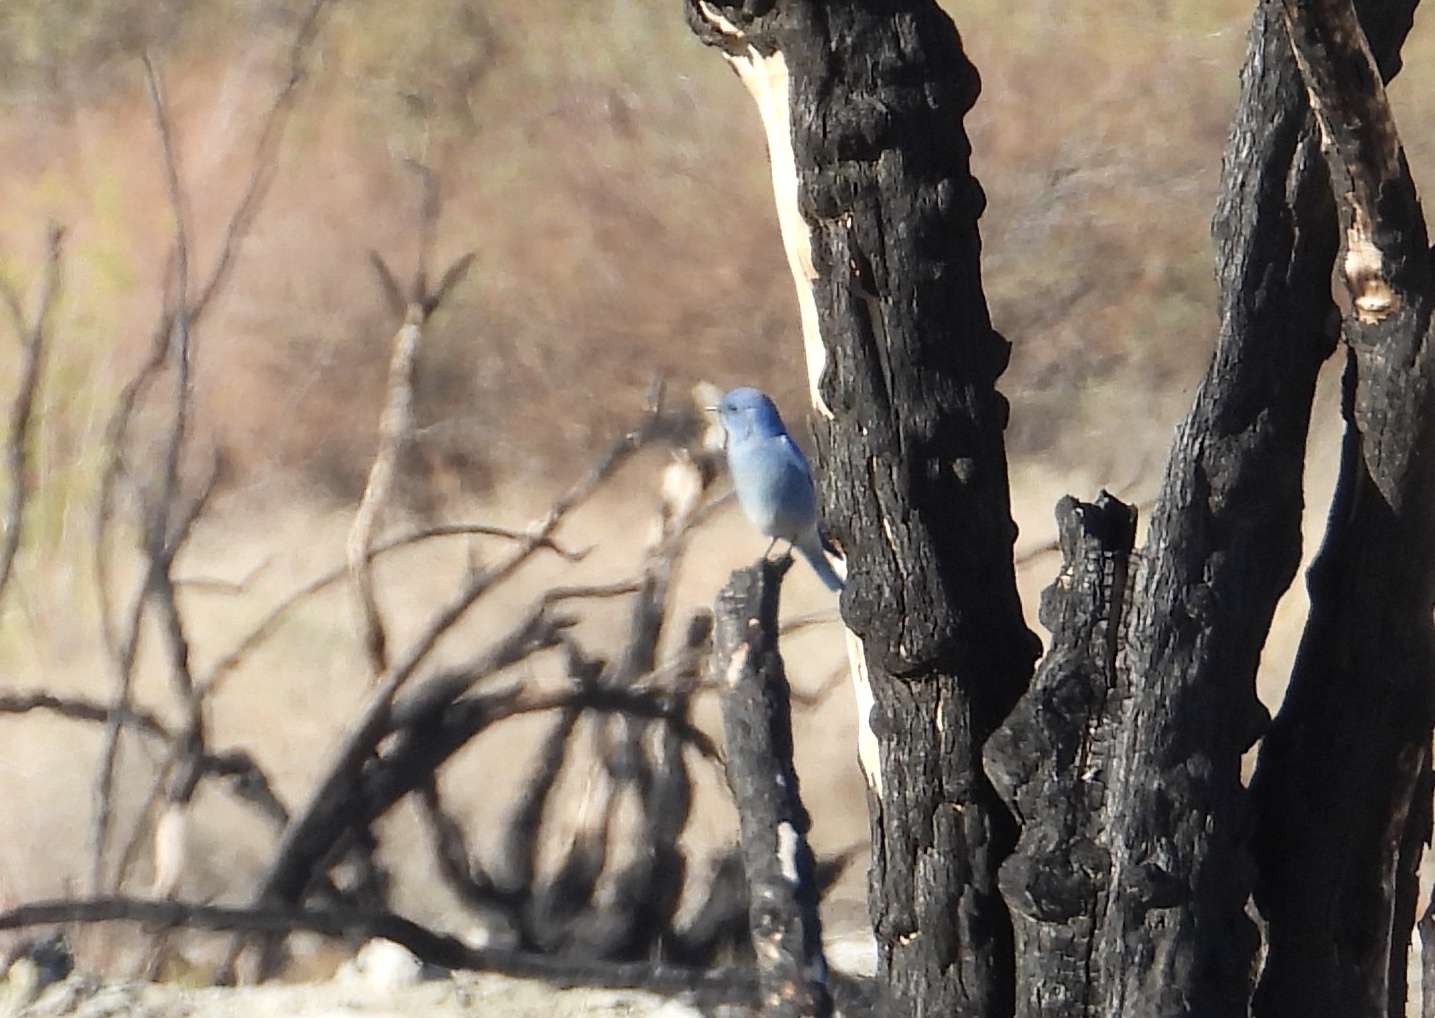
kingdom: Animalia
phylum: Chordata
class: Aves
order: Passeriformes
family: Turdidae
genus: Sialia
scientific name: Sialia currucoides
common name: Mountain bluebird
